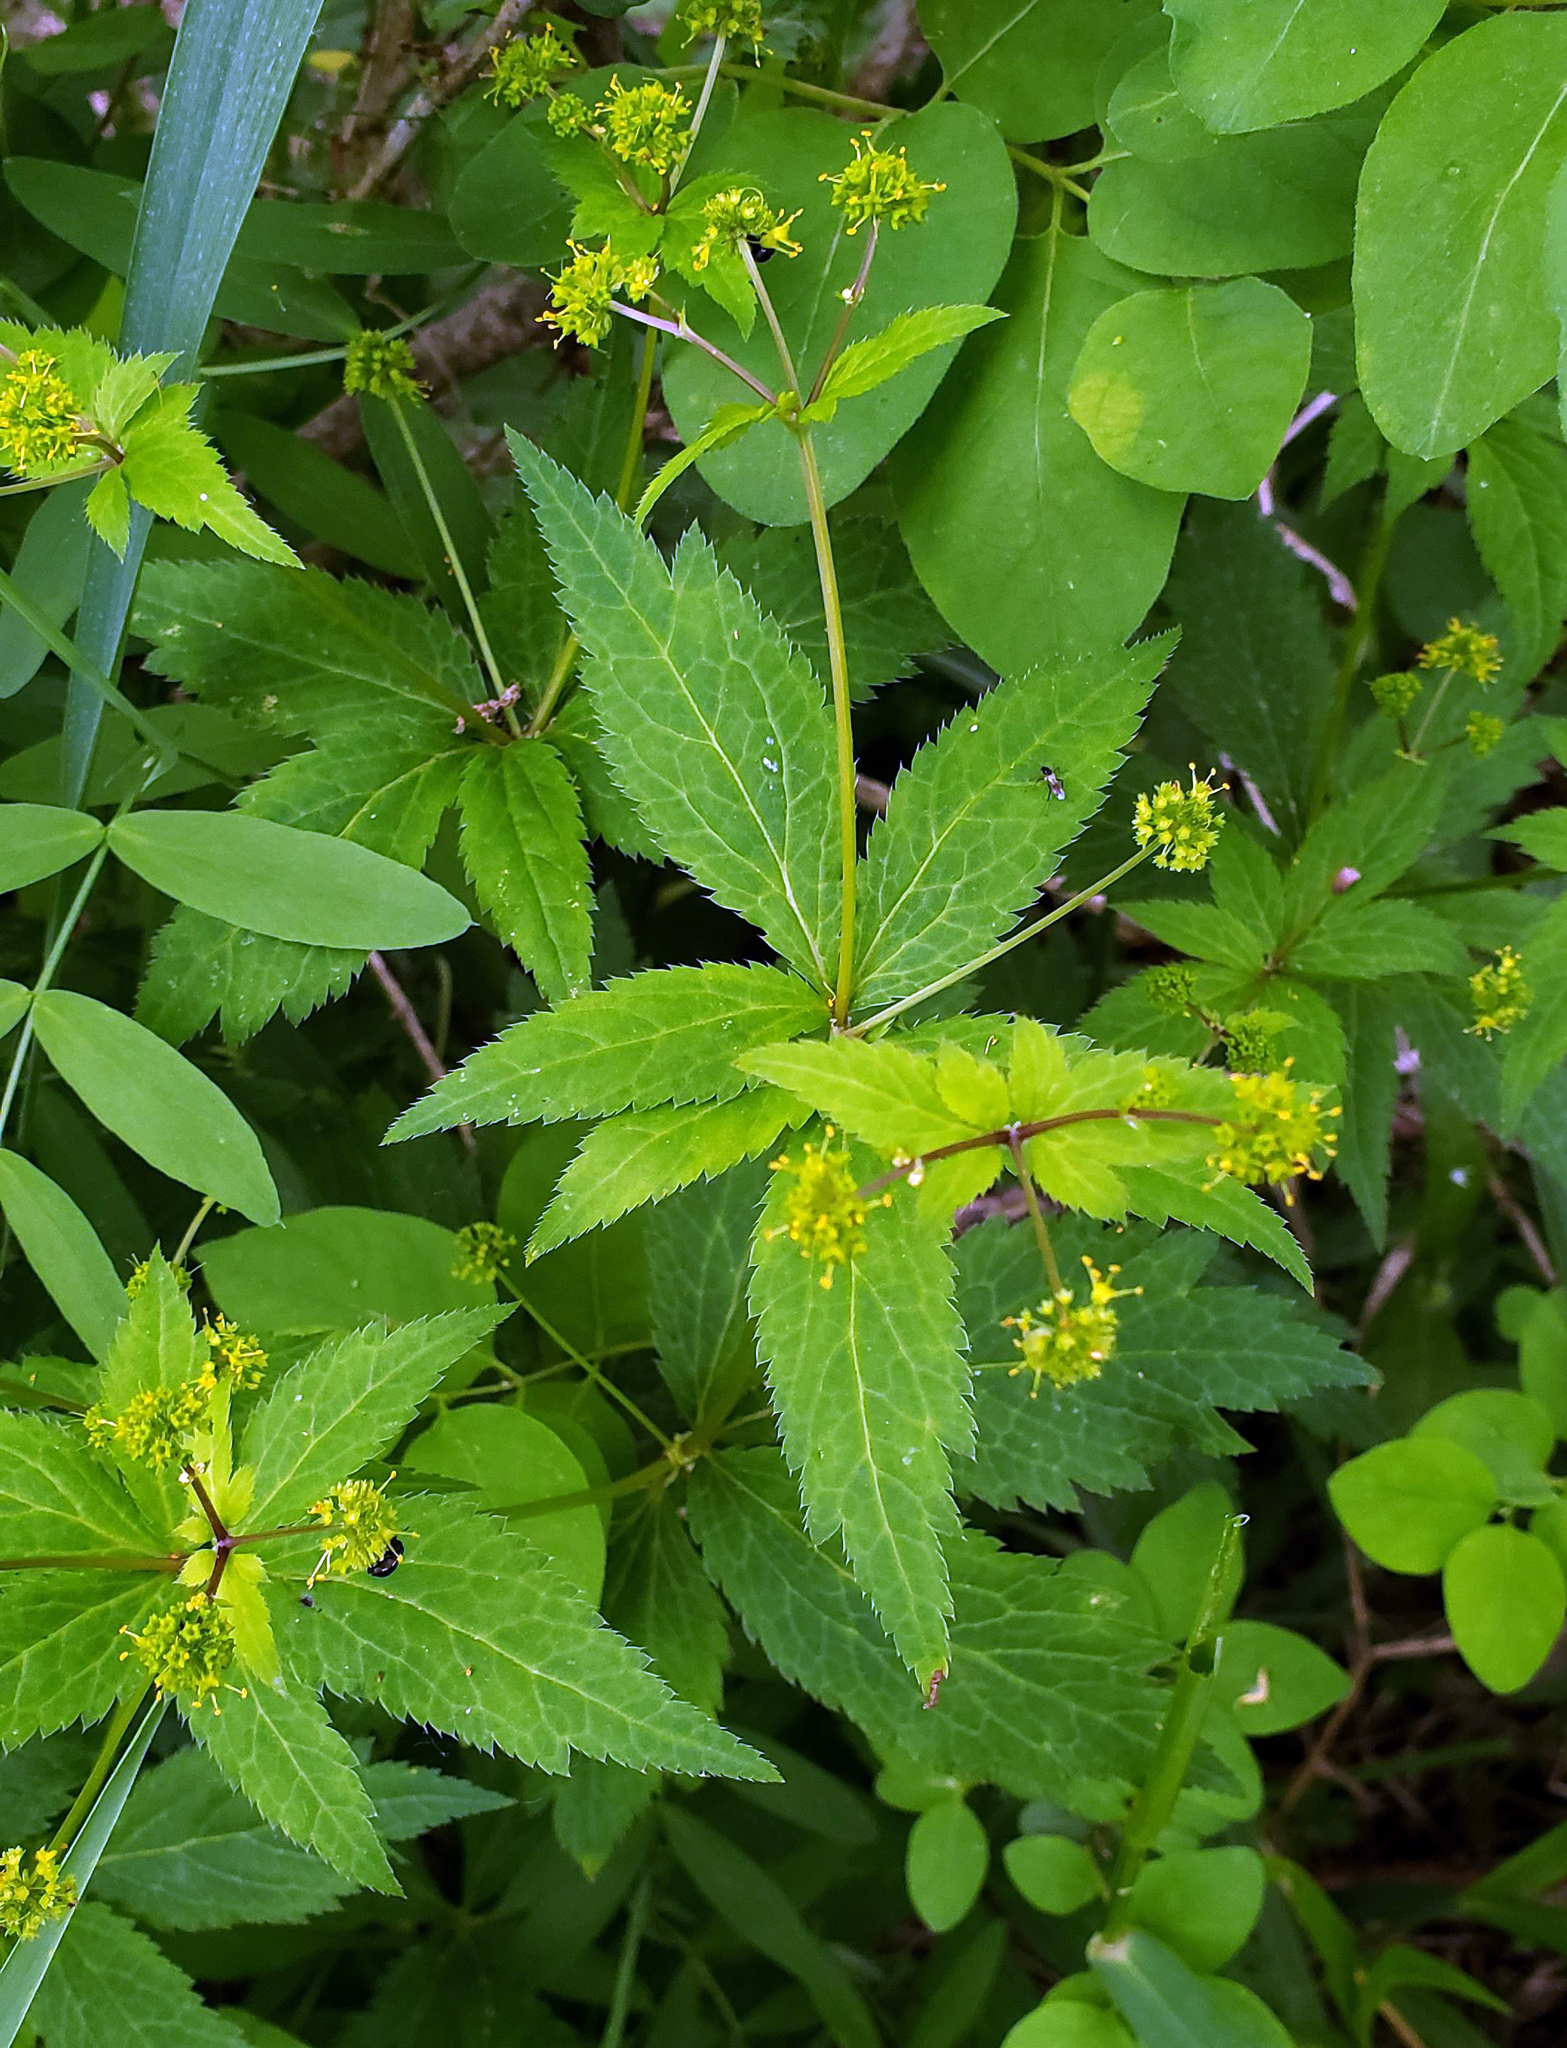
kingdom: Plantae
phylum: Tracheophyta
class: Magnoliopsida
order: Apiales
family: Apiaceae
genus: Sanicula
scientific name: Sanicula odorata
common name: Cluster sanicle
